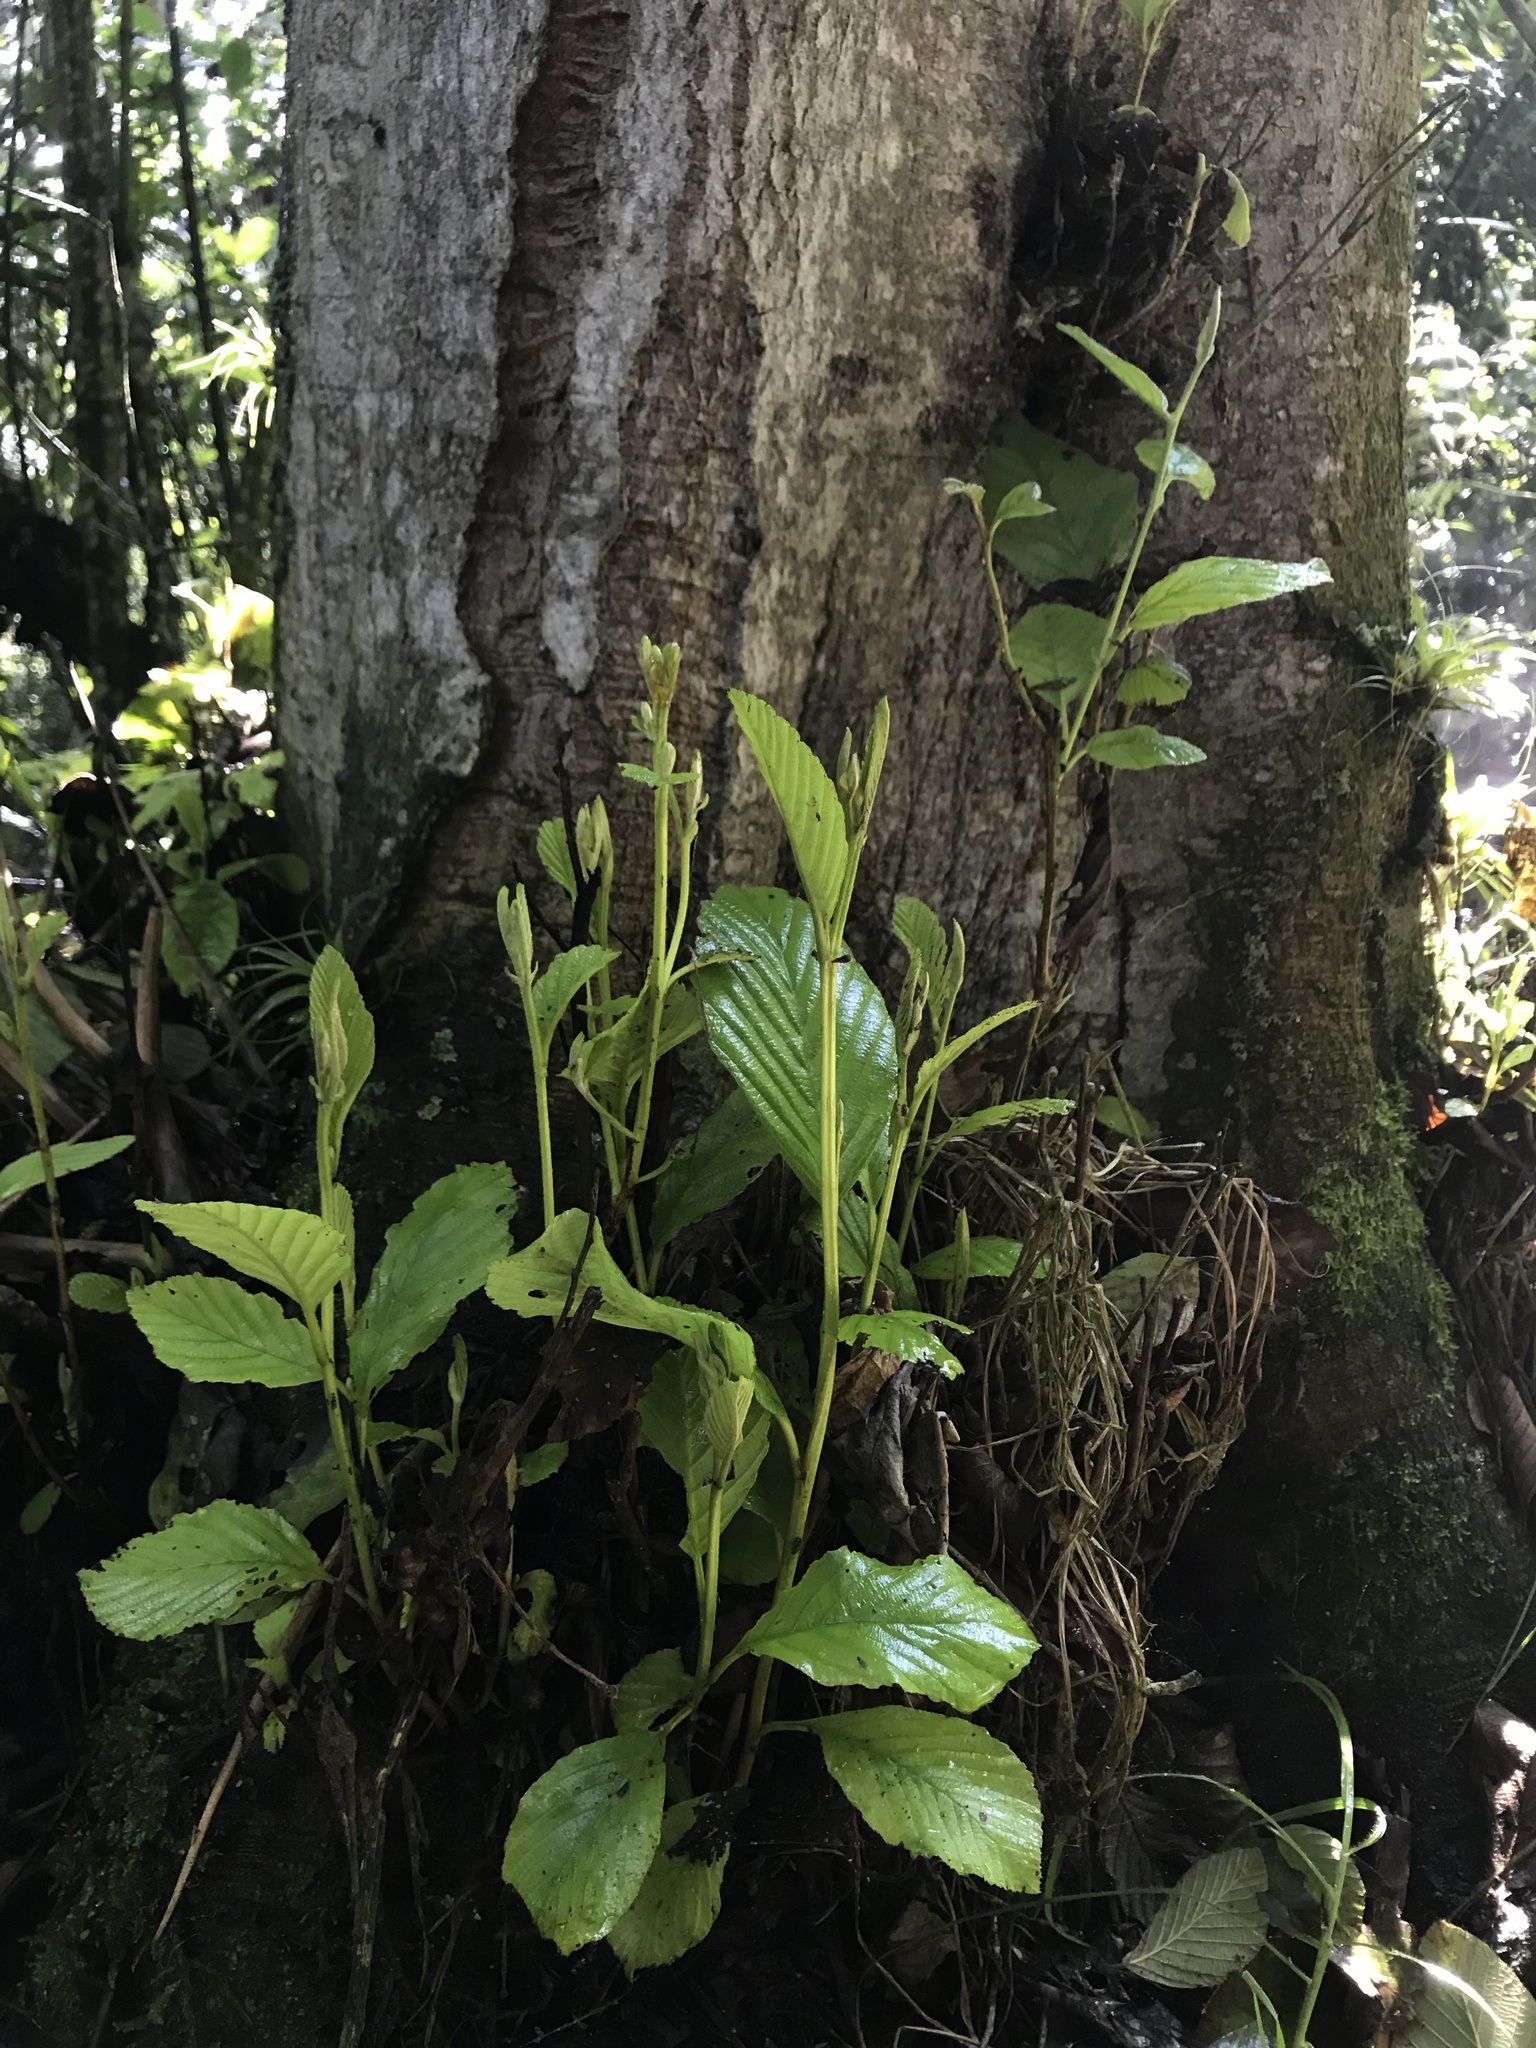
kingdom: Plantae
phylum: Tracheophyta
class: Magnoliopsida
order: Fagales
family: Betulaceae
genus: Alnus
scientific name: Alnus acuminata
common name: Alder
